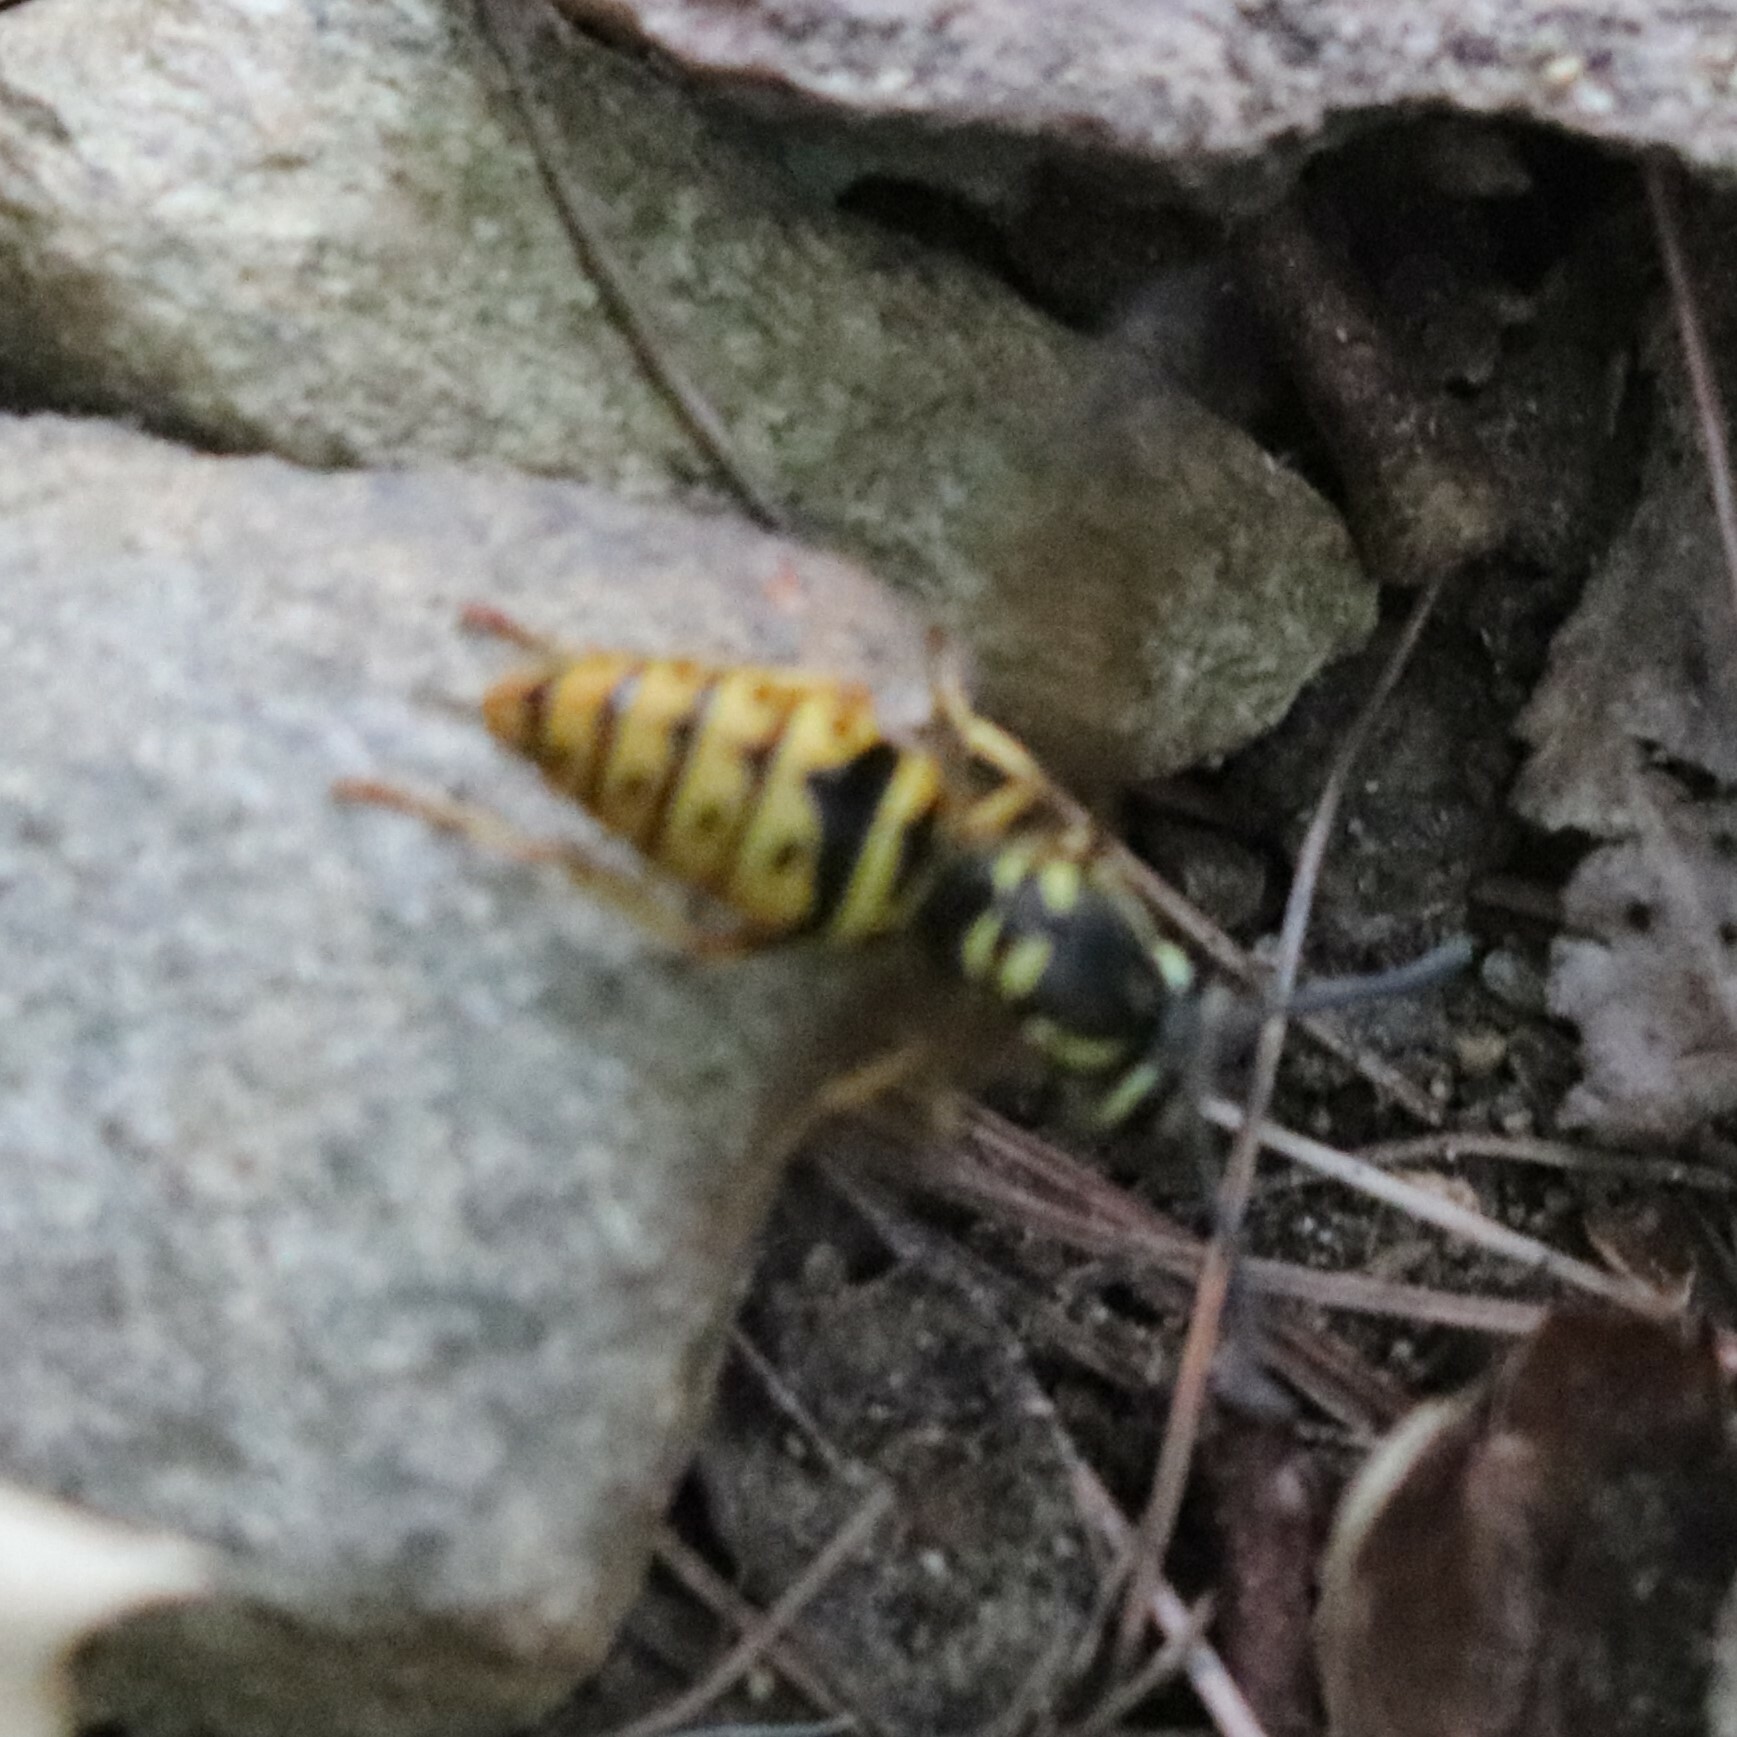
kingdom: Animalia
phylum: Arthropoda
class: Insecta
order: Hymenoptera
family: Vespidae
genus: Vespula
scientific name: Vespula maculifrons
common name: Eastern yellowjacket
